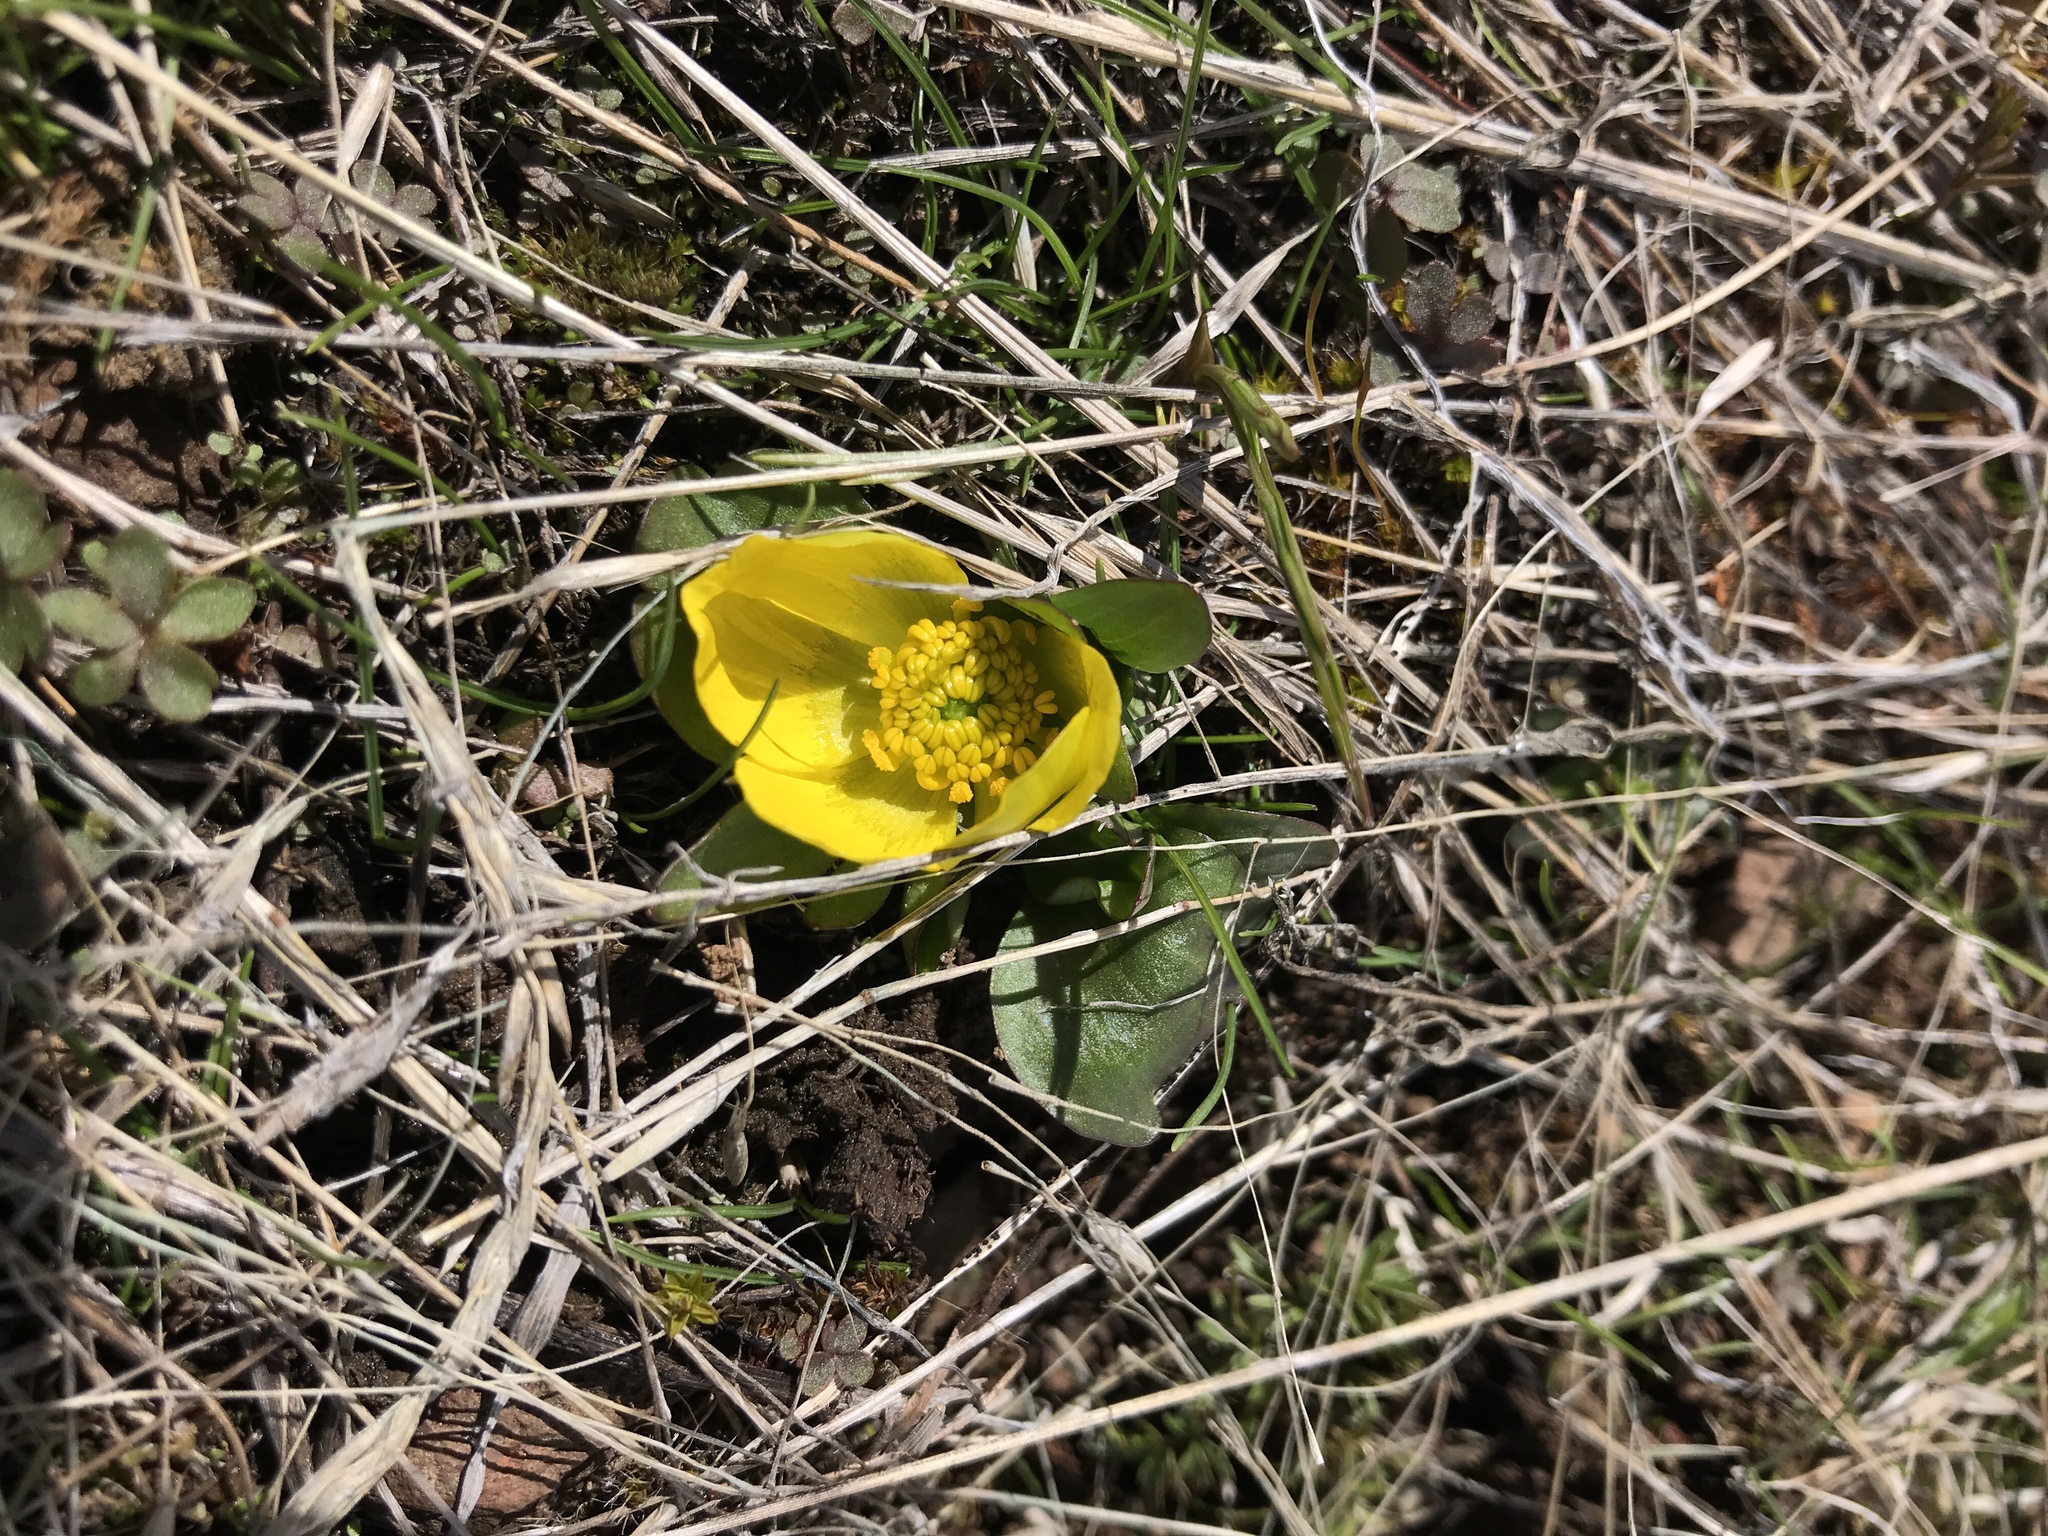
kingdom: Plantae
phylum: Tracheophyta
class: Magnoliopsida
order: Ranunculales
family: Ranunculaceae
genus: Ranunculus
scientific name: Ranunculus glaberrimus
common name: Sagebrush buttercup
